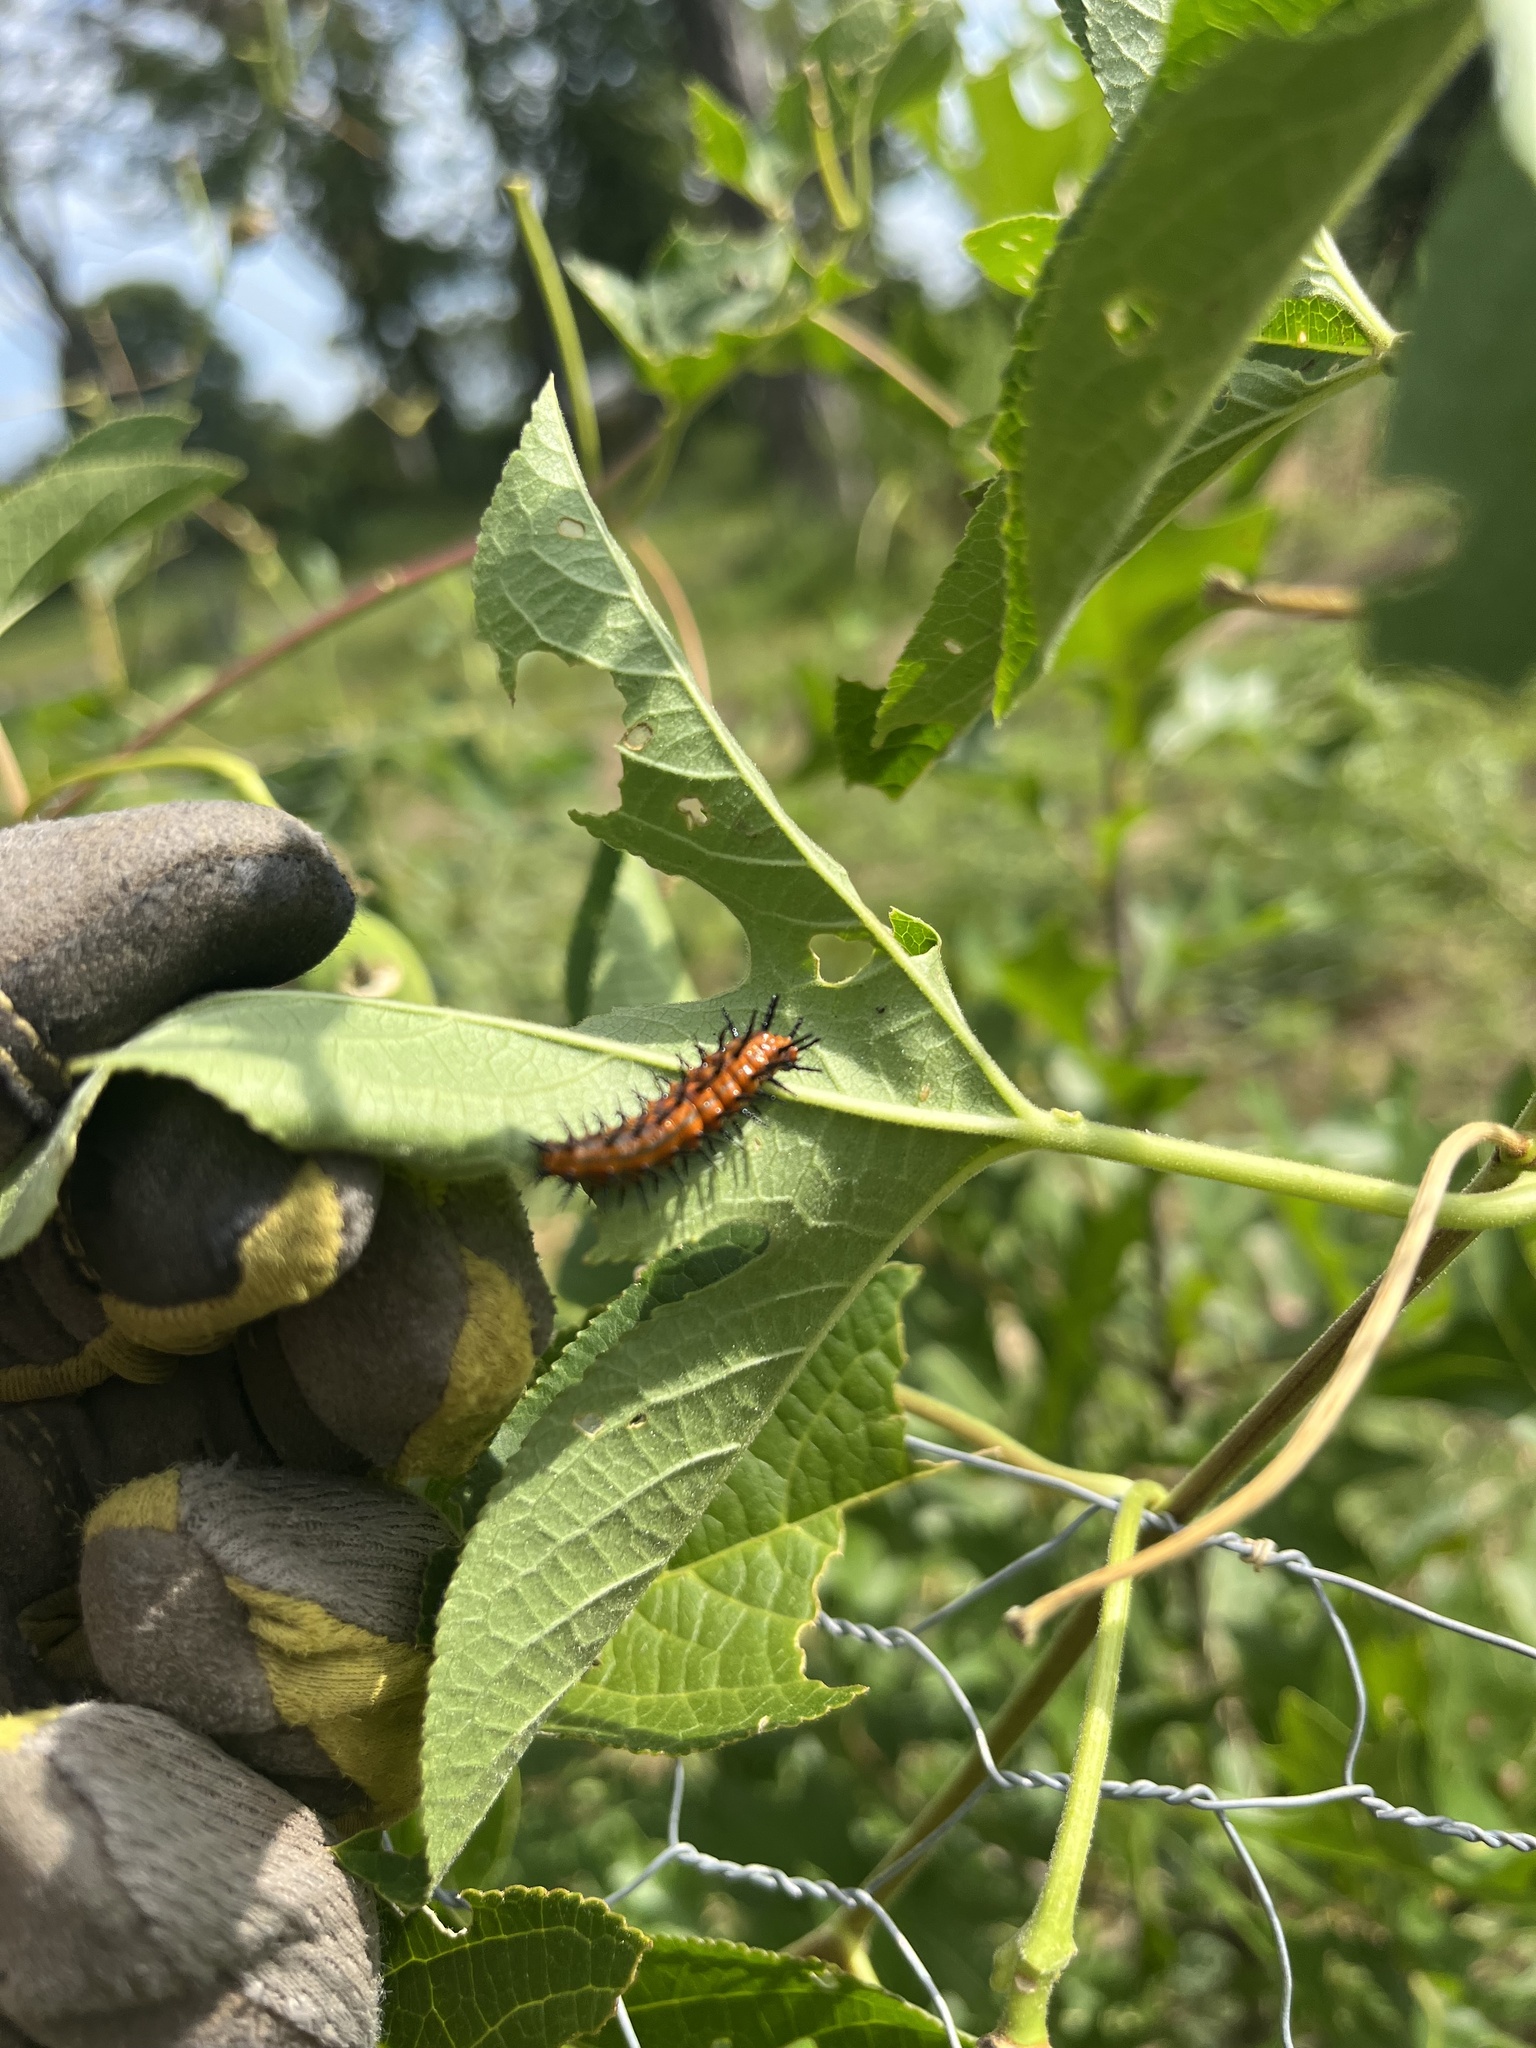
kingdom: Animalia
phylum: Arthropoda
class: Insecta
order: Lepidoptera
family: Nymphalidae
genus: Dione
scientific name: Dione vanillae
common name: Gulf fritillary
